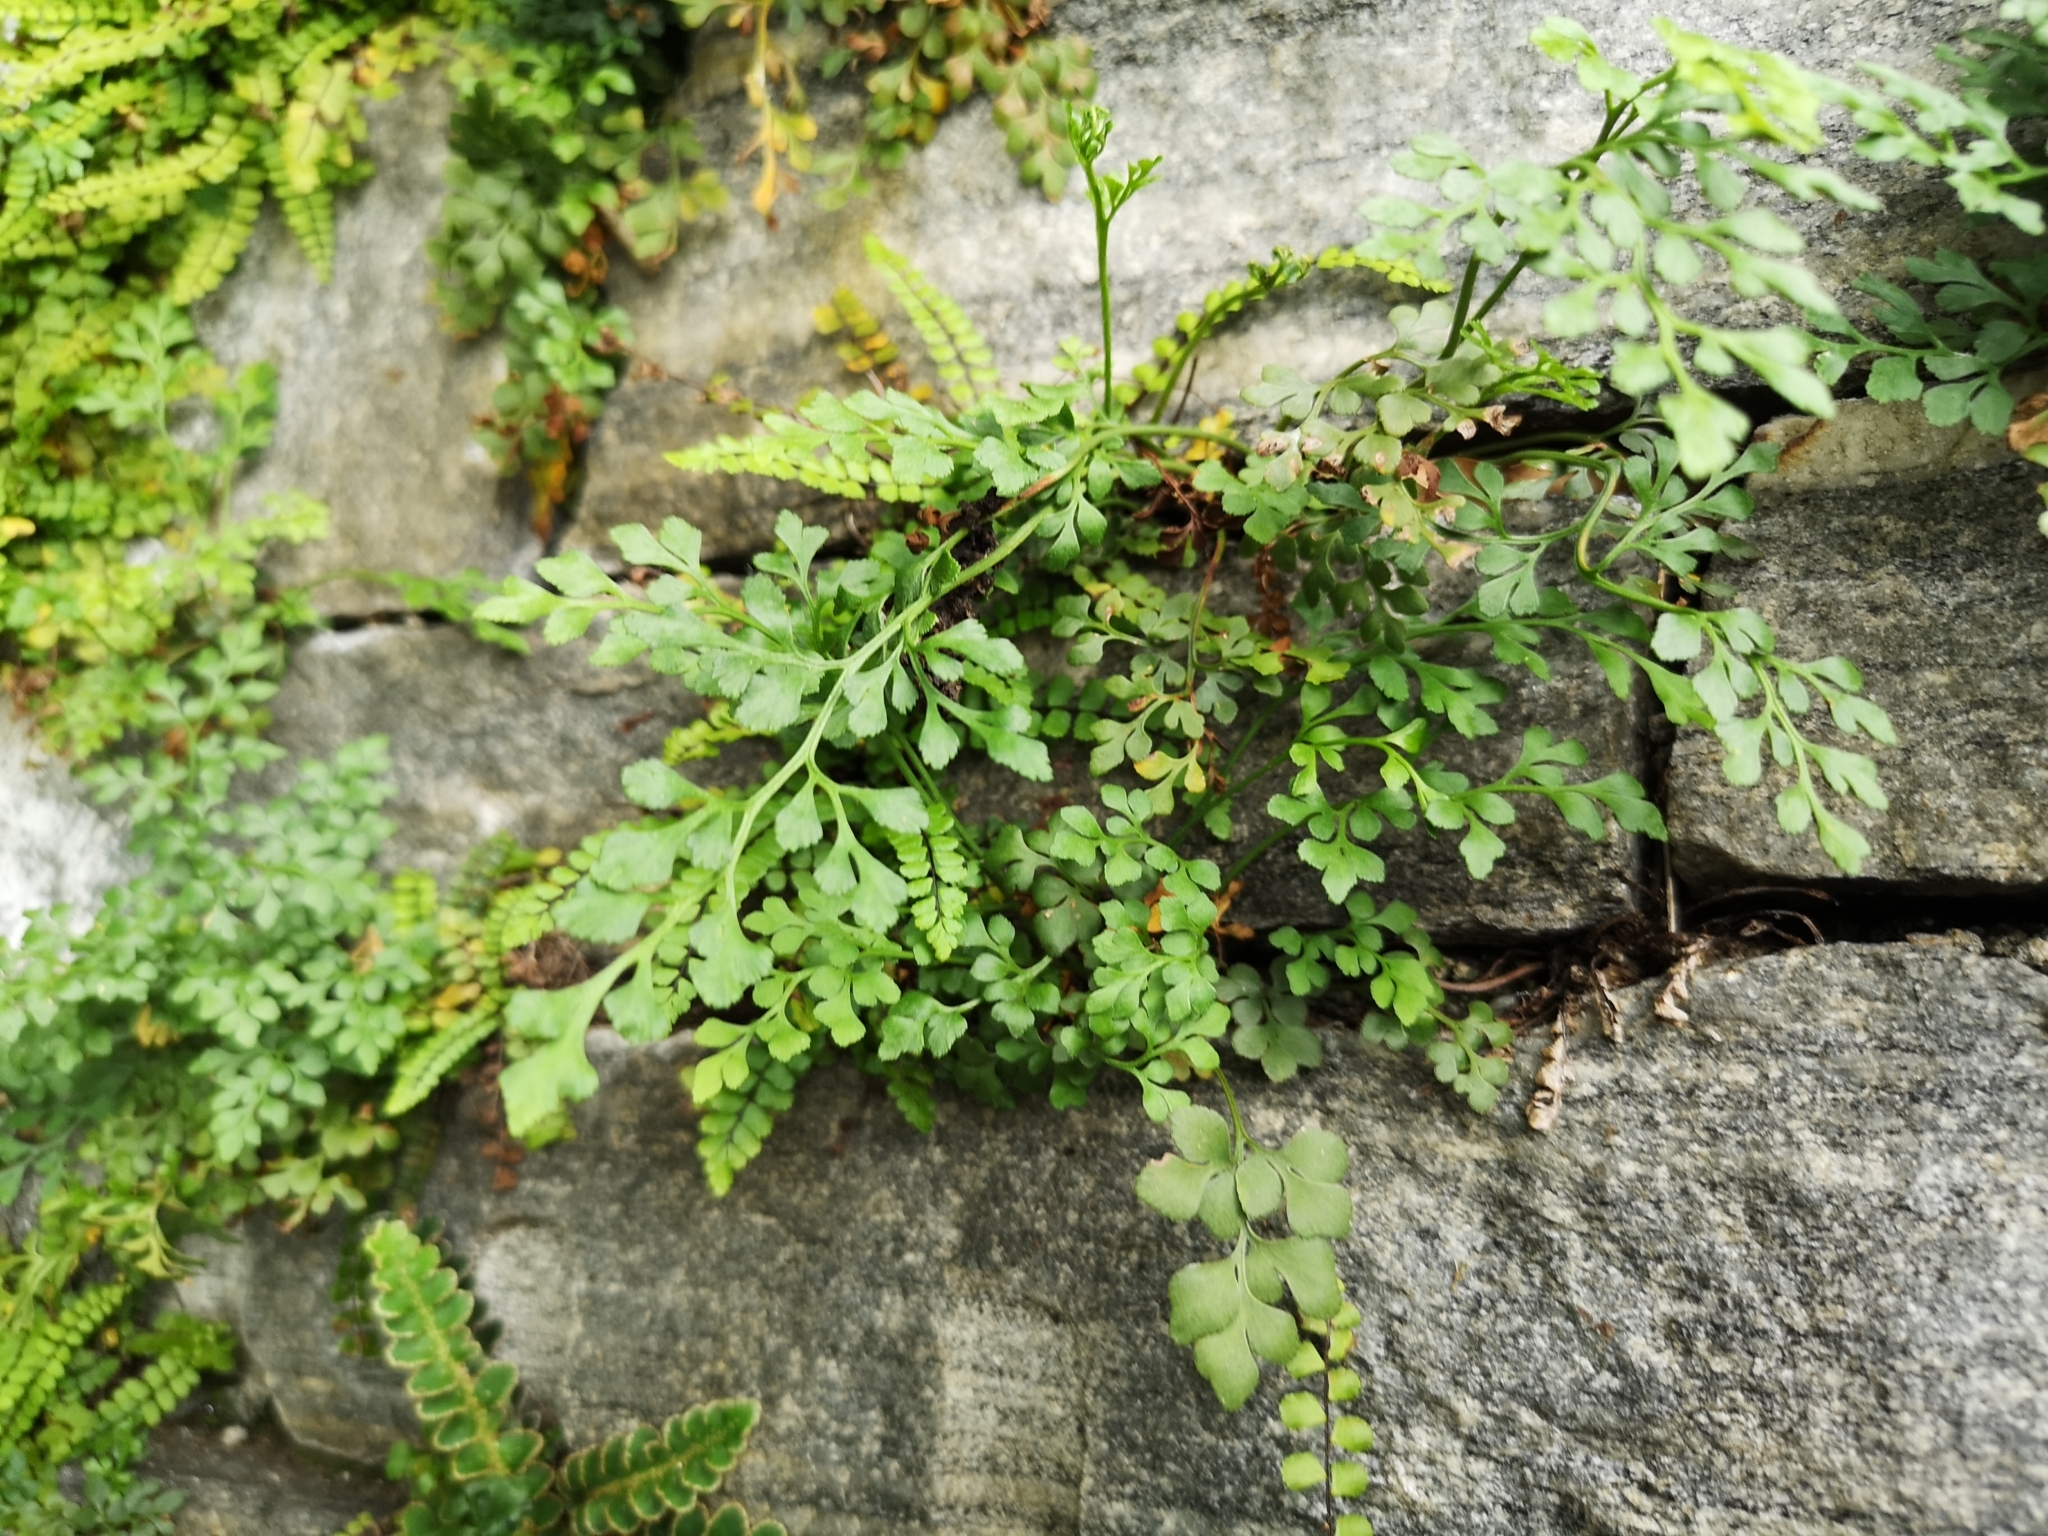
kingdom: Plantae
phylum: Tracheophyta
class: Polypodiopsida
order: Polypodiales
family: Aspleniaceae
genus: Asplenium
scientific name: Asplenium ruta-muraria
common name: Wall-rue
